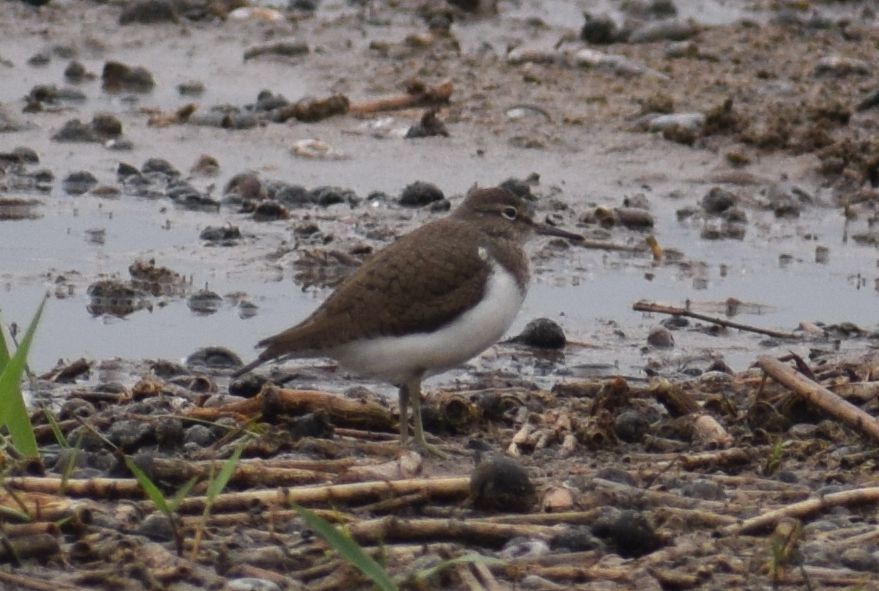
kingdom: Animalia
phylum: Chordata
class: Aves
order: Charadriiformes
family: Scolopacidae
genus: Actitis
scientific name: Actitis hypoleucos
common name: Common sandpiper
